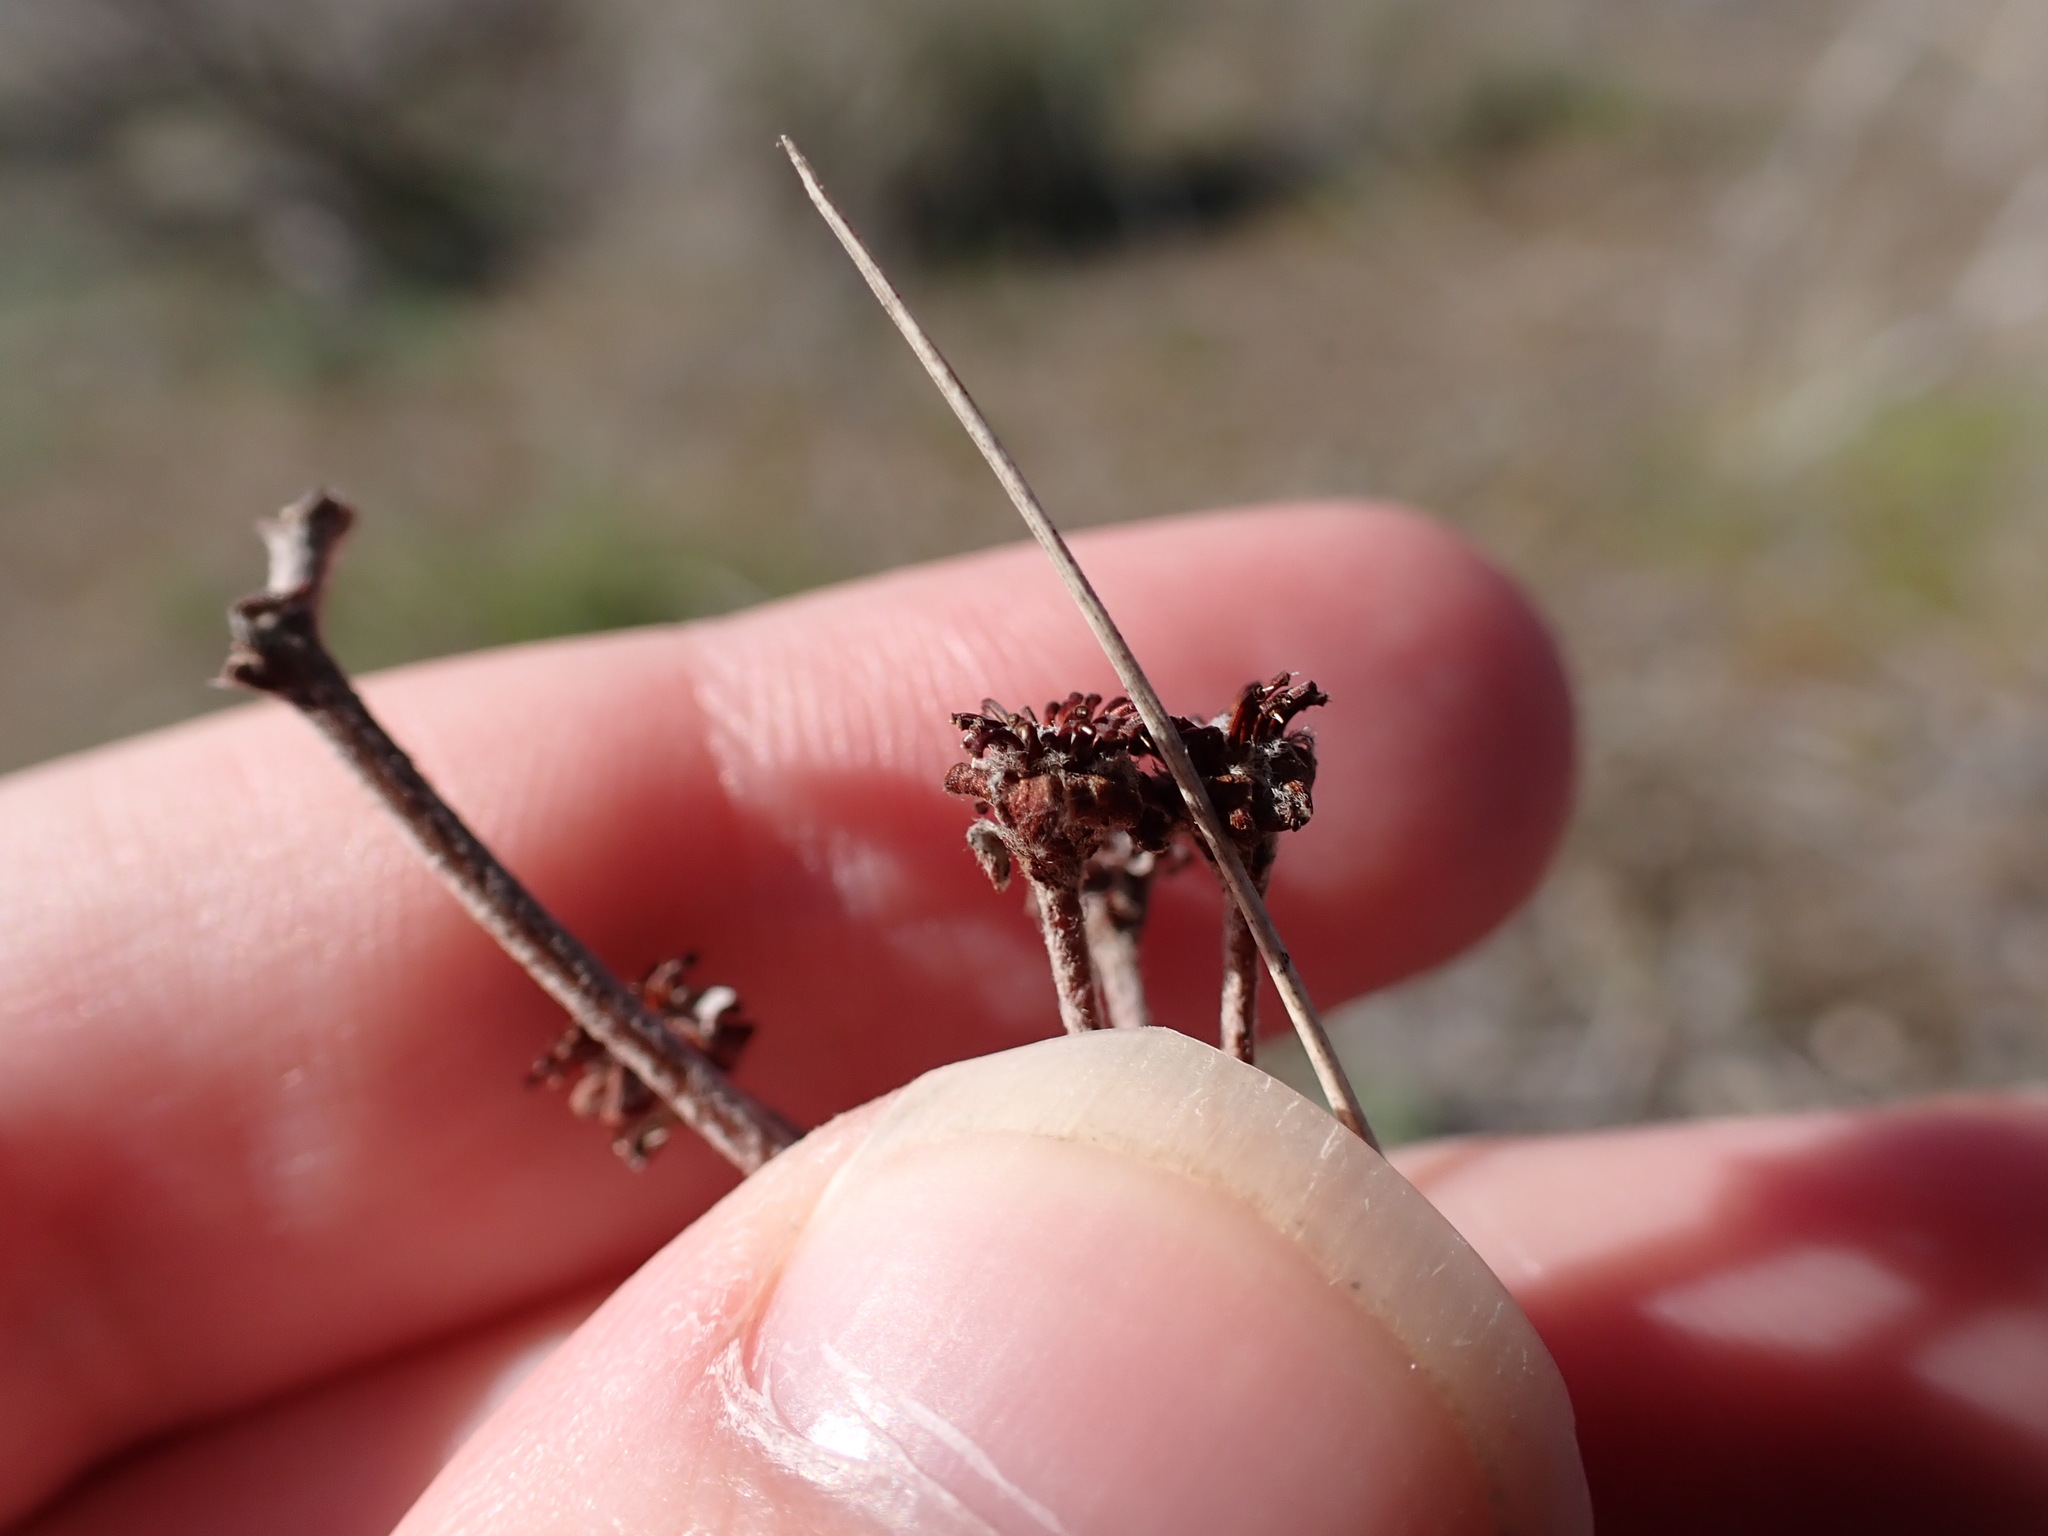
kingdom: Plantae
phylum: Tracheophyta
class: Magnoliopsida
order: Caryophyllales
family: Polygonaceae
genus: Eriogonum
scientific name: Eriogonum sphaerocephalum
